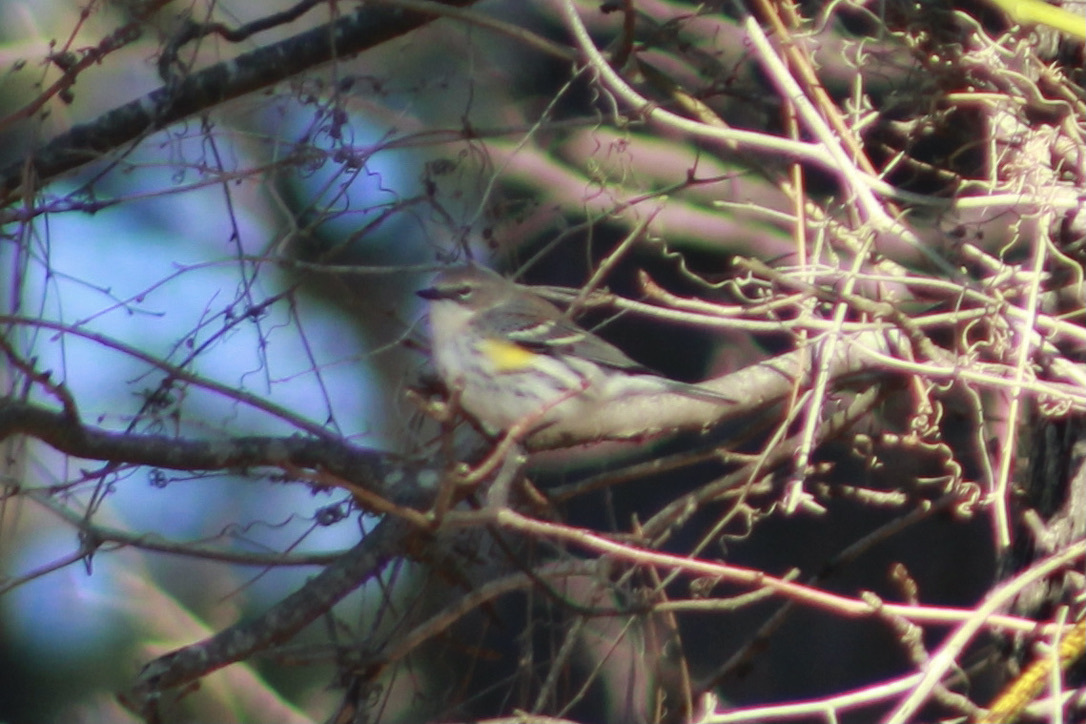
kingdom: Animalia
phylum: Chordata
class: Aves
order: Passeriformes
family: Parulidae
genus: Setophaga
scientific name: Setophaga coronata
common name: Myrtle warbler
